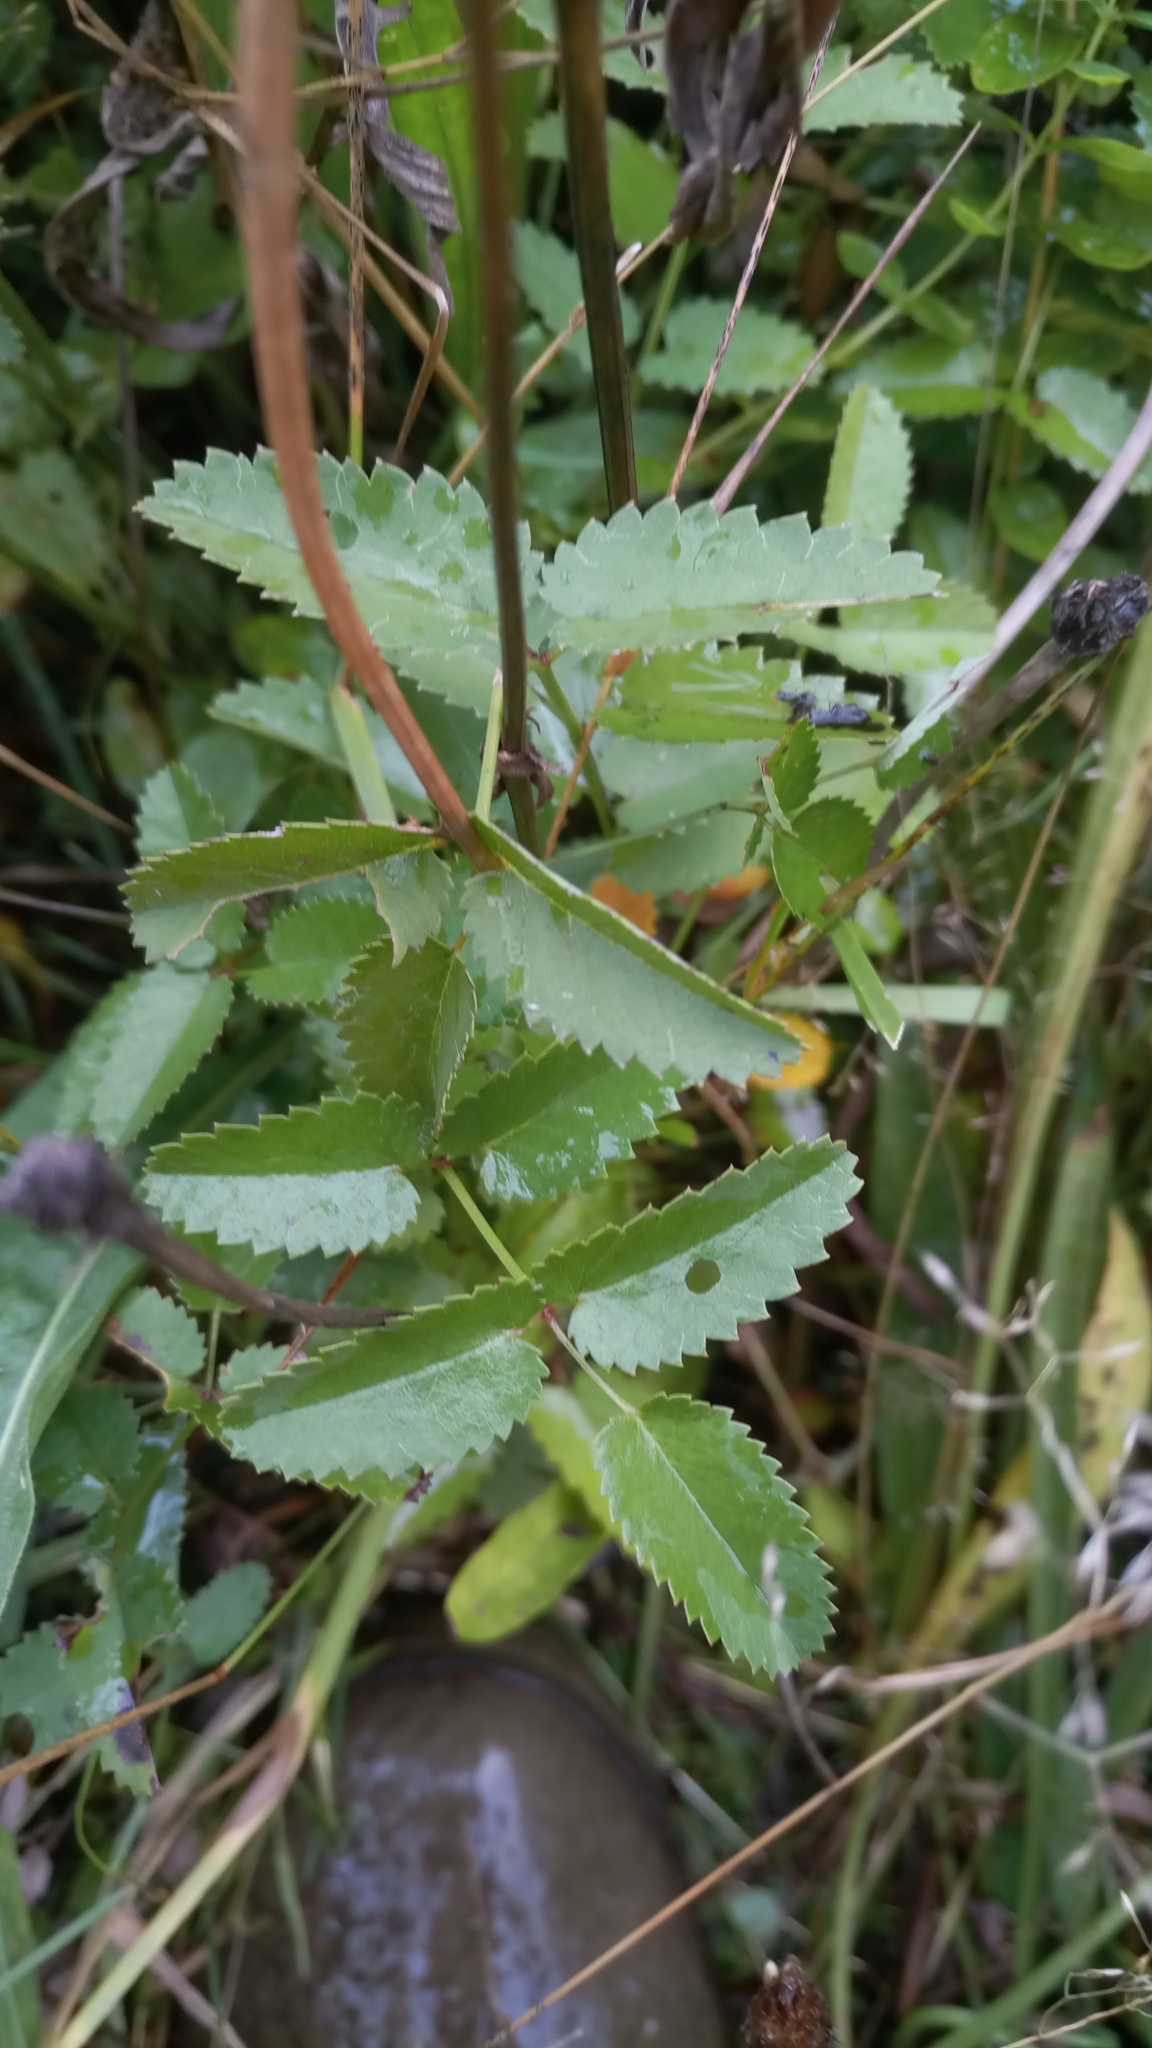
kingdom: Plantae
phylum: Tracheophyta
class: Magnoliopsida
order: Rosales
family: Rosaceae
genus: Sanguisorba
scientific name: Sanguisorba officinalis
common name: Great burnet
